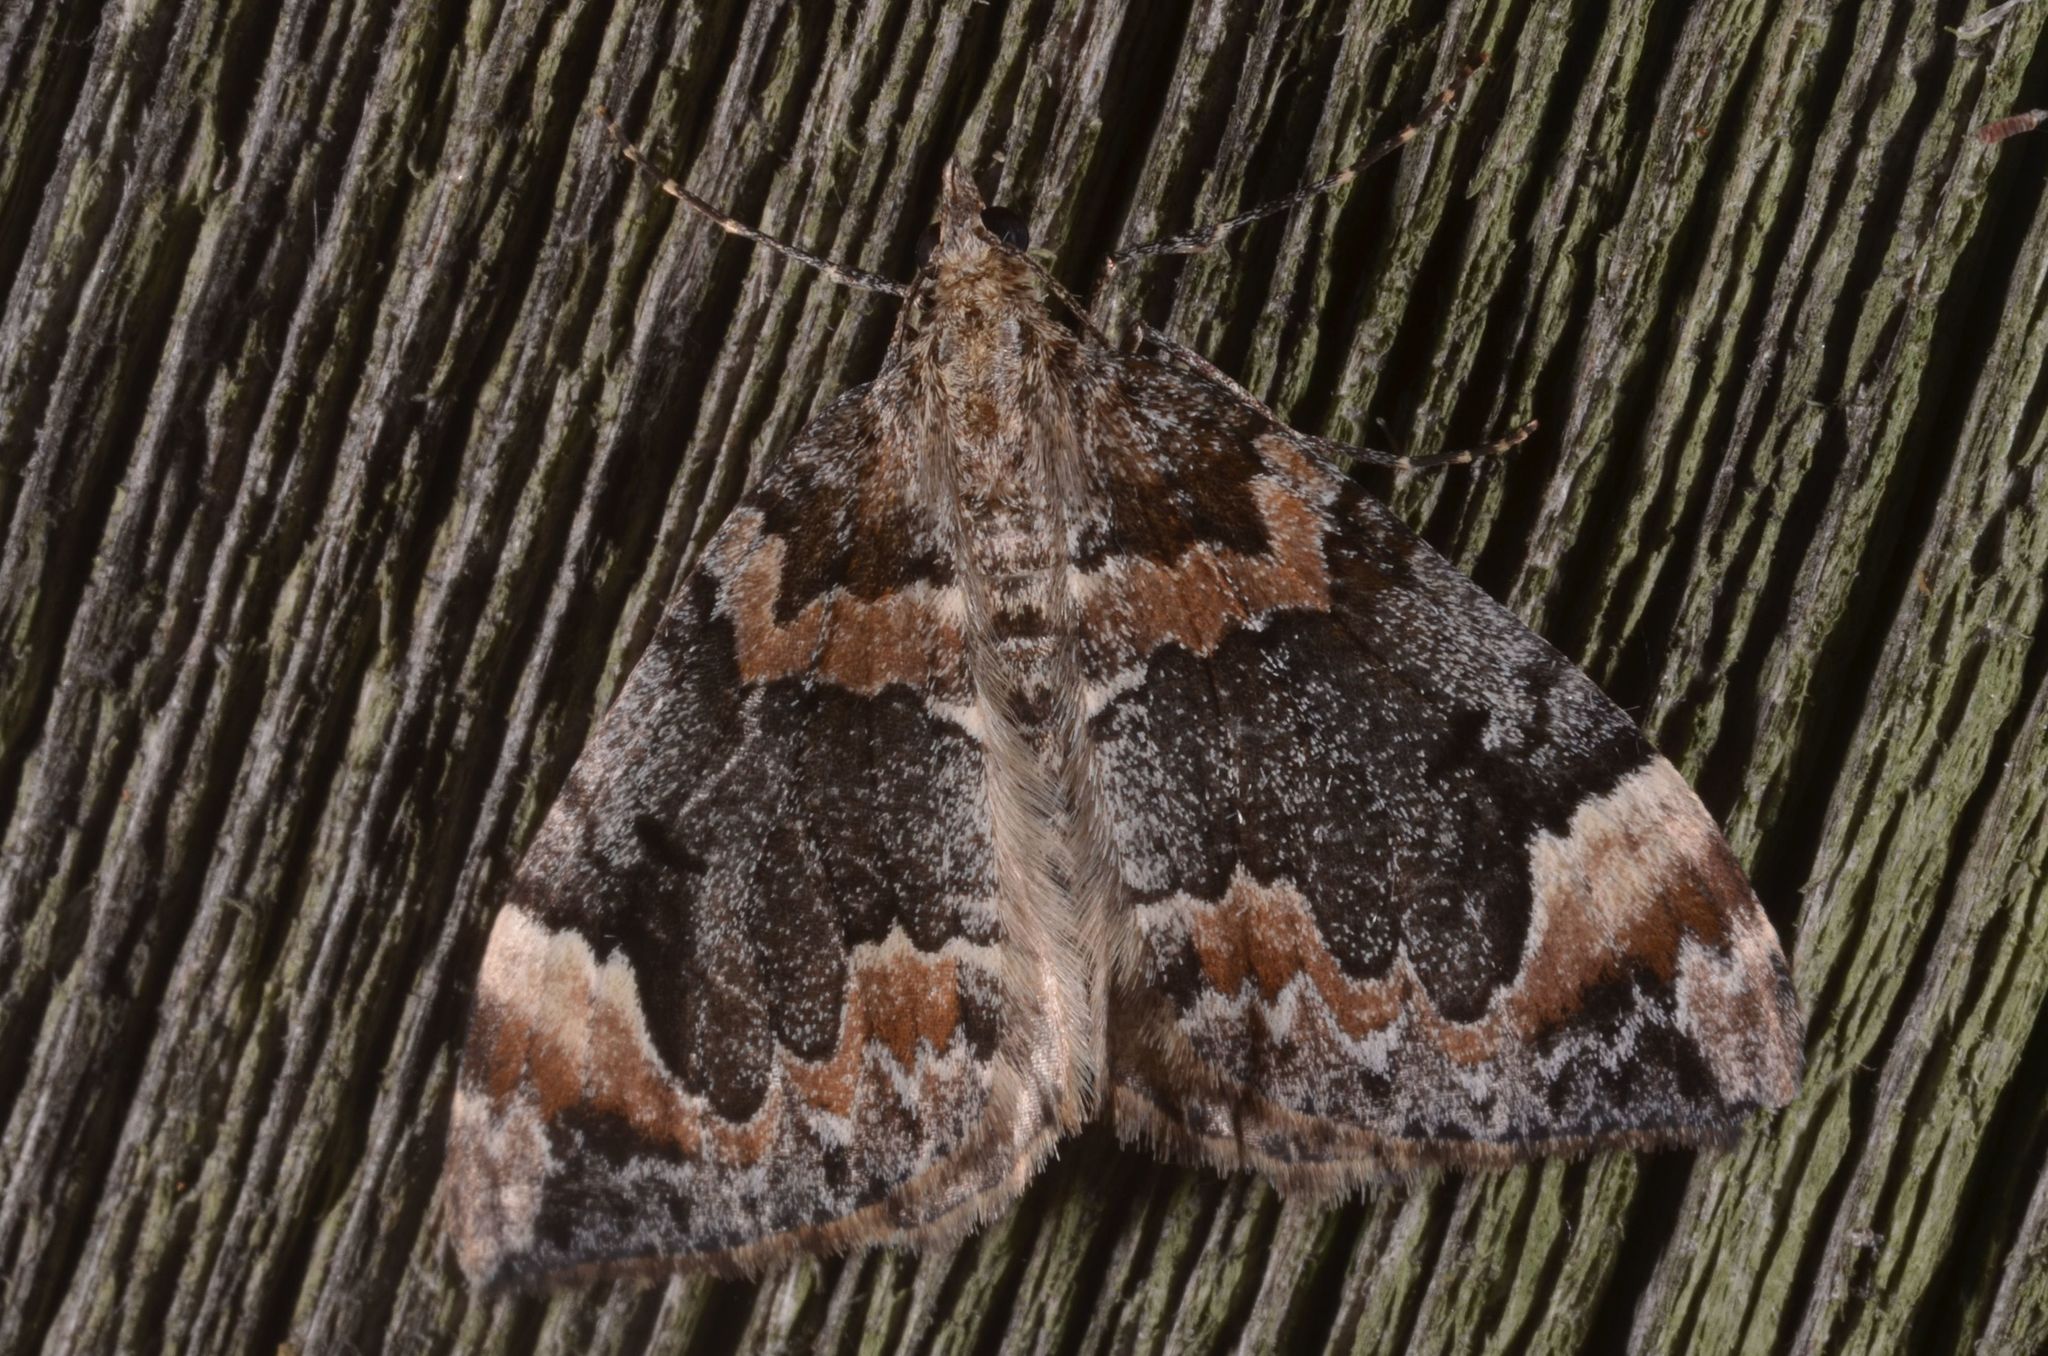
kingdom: Animalia
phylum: Arthropoda
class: Insecta
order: Lepidoptera
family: Geometridae
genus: Dysstroma
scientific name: Dysstroma citrata
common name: Dark marbled carpet
